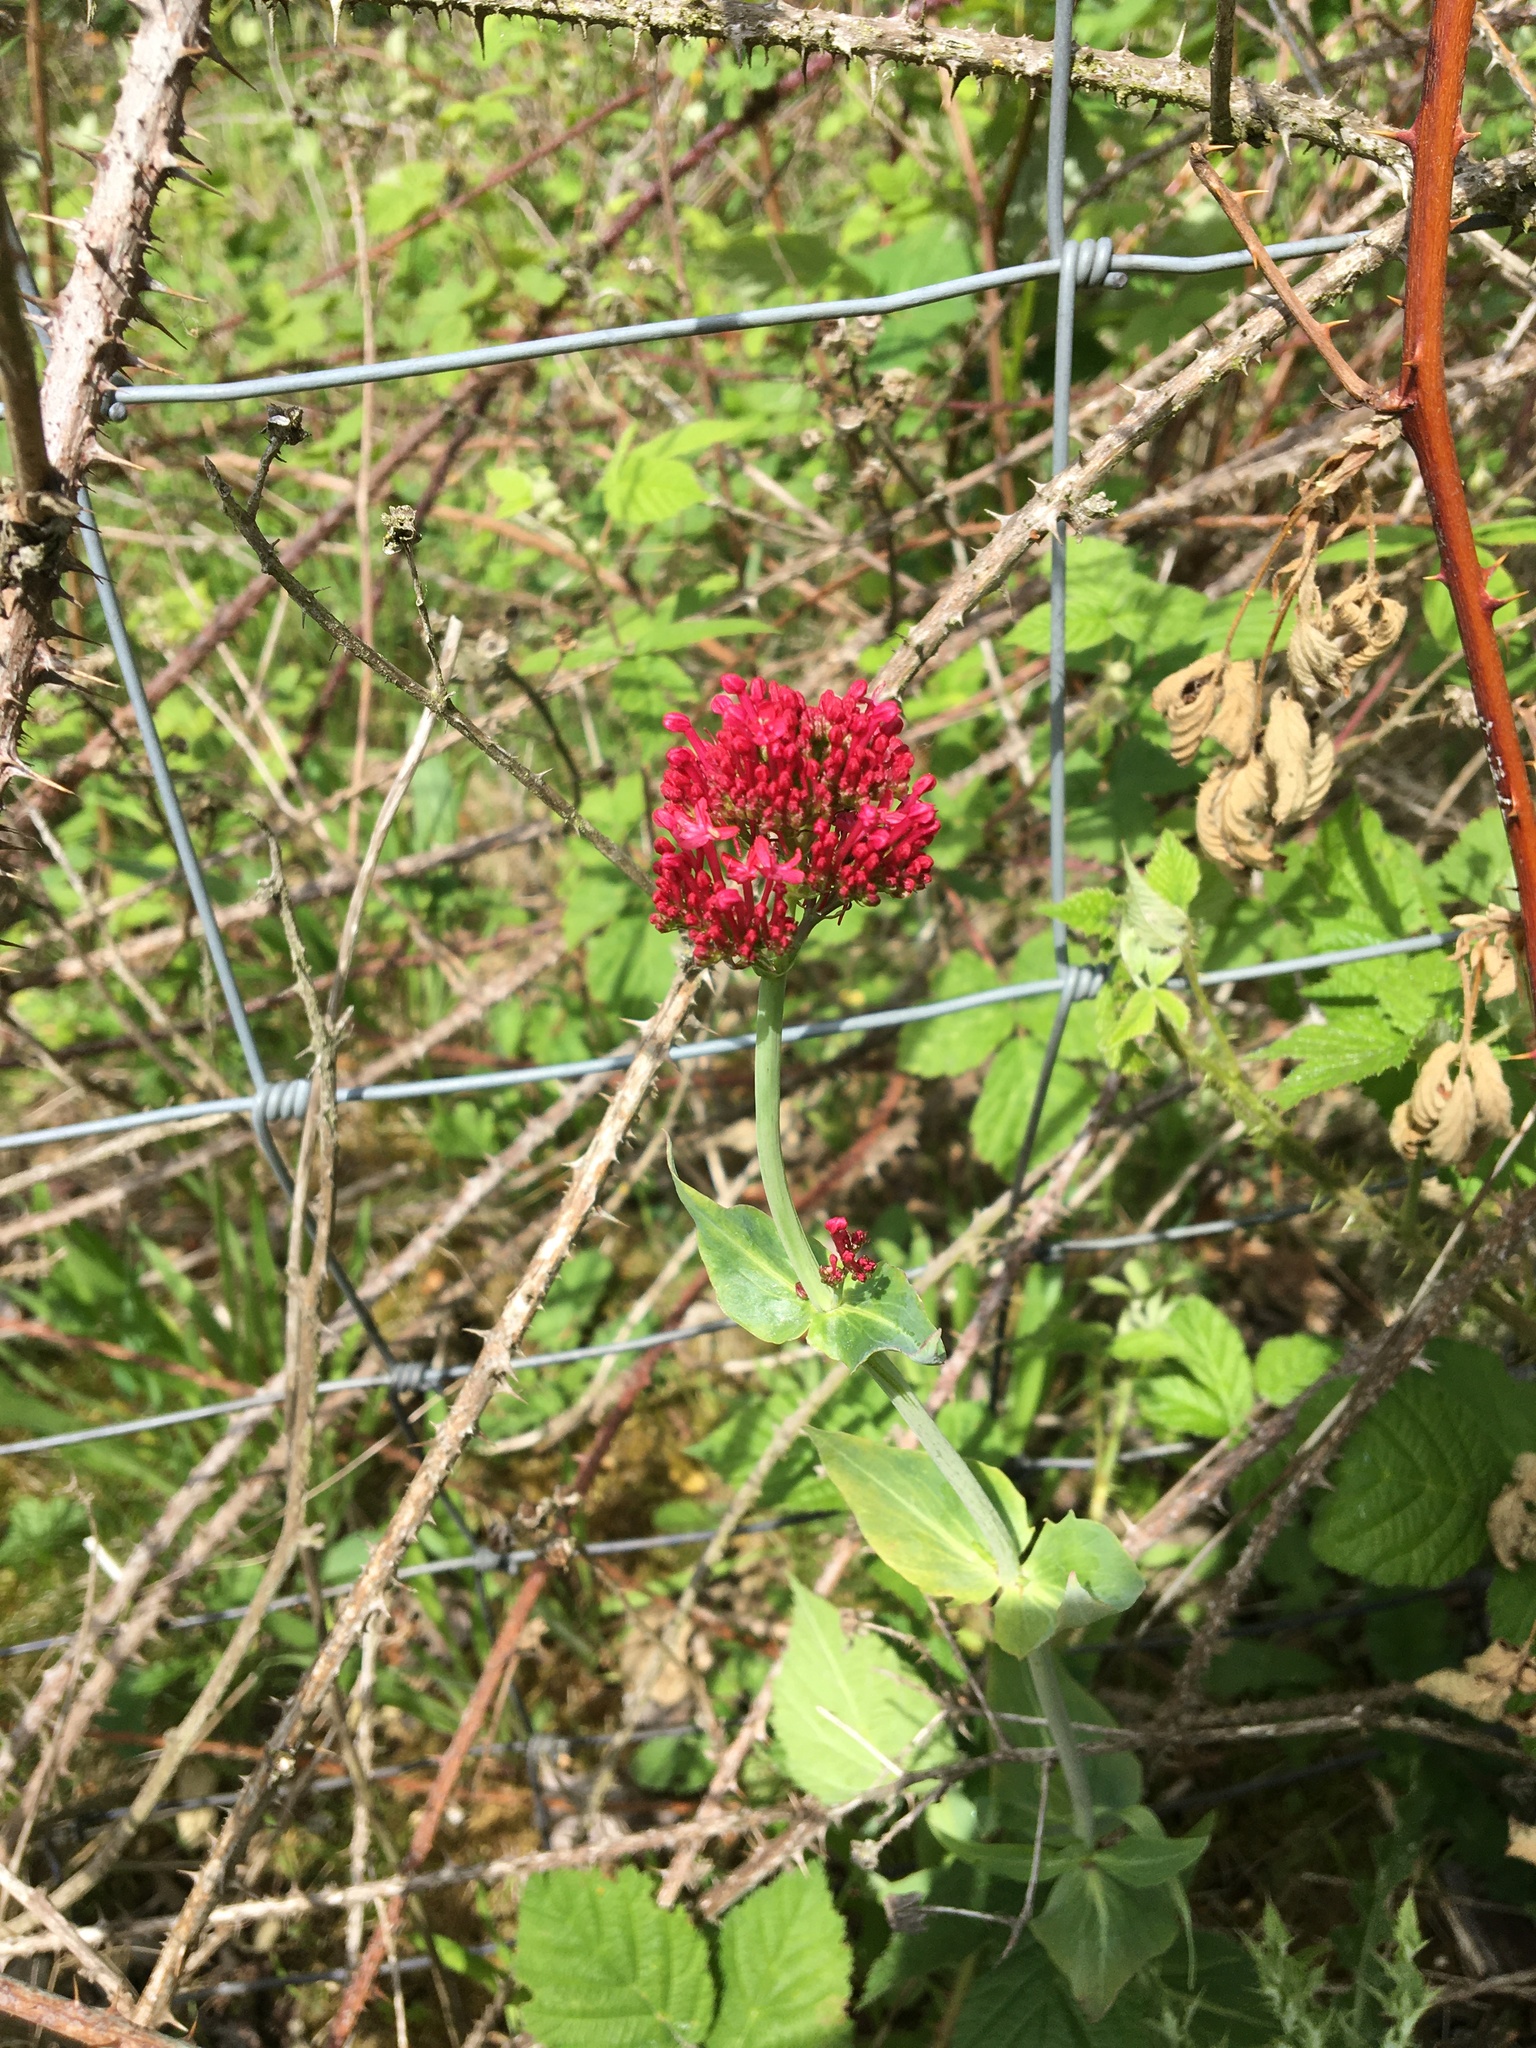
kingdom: Plantae
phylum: Tracheophyta
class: Magnoliopsida
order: Dipsacales
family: Caprifoliaceae
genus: Centranthus
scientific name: Centranthus ruber
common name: Red valerian
